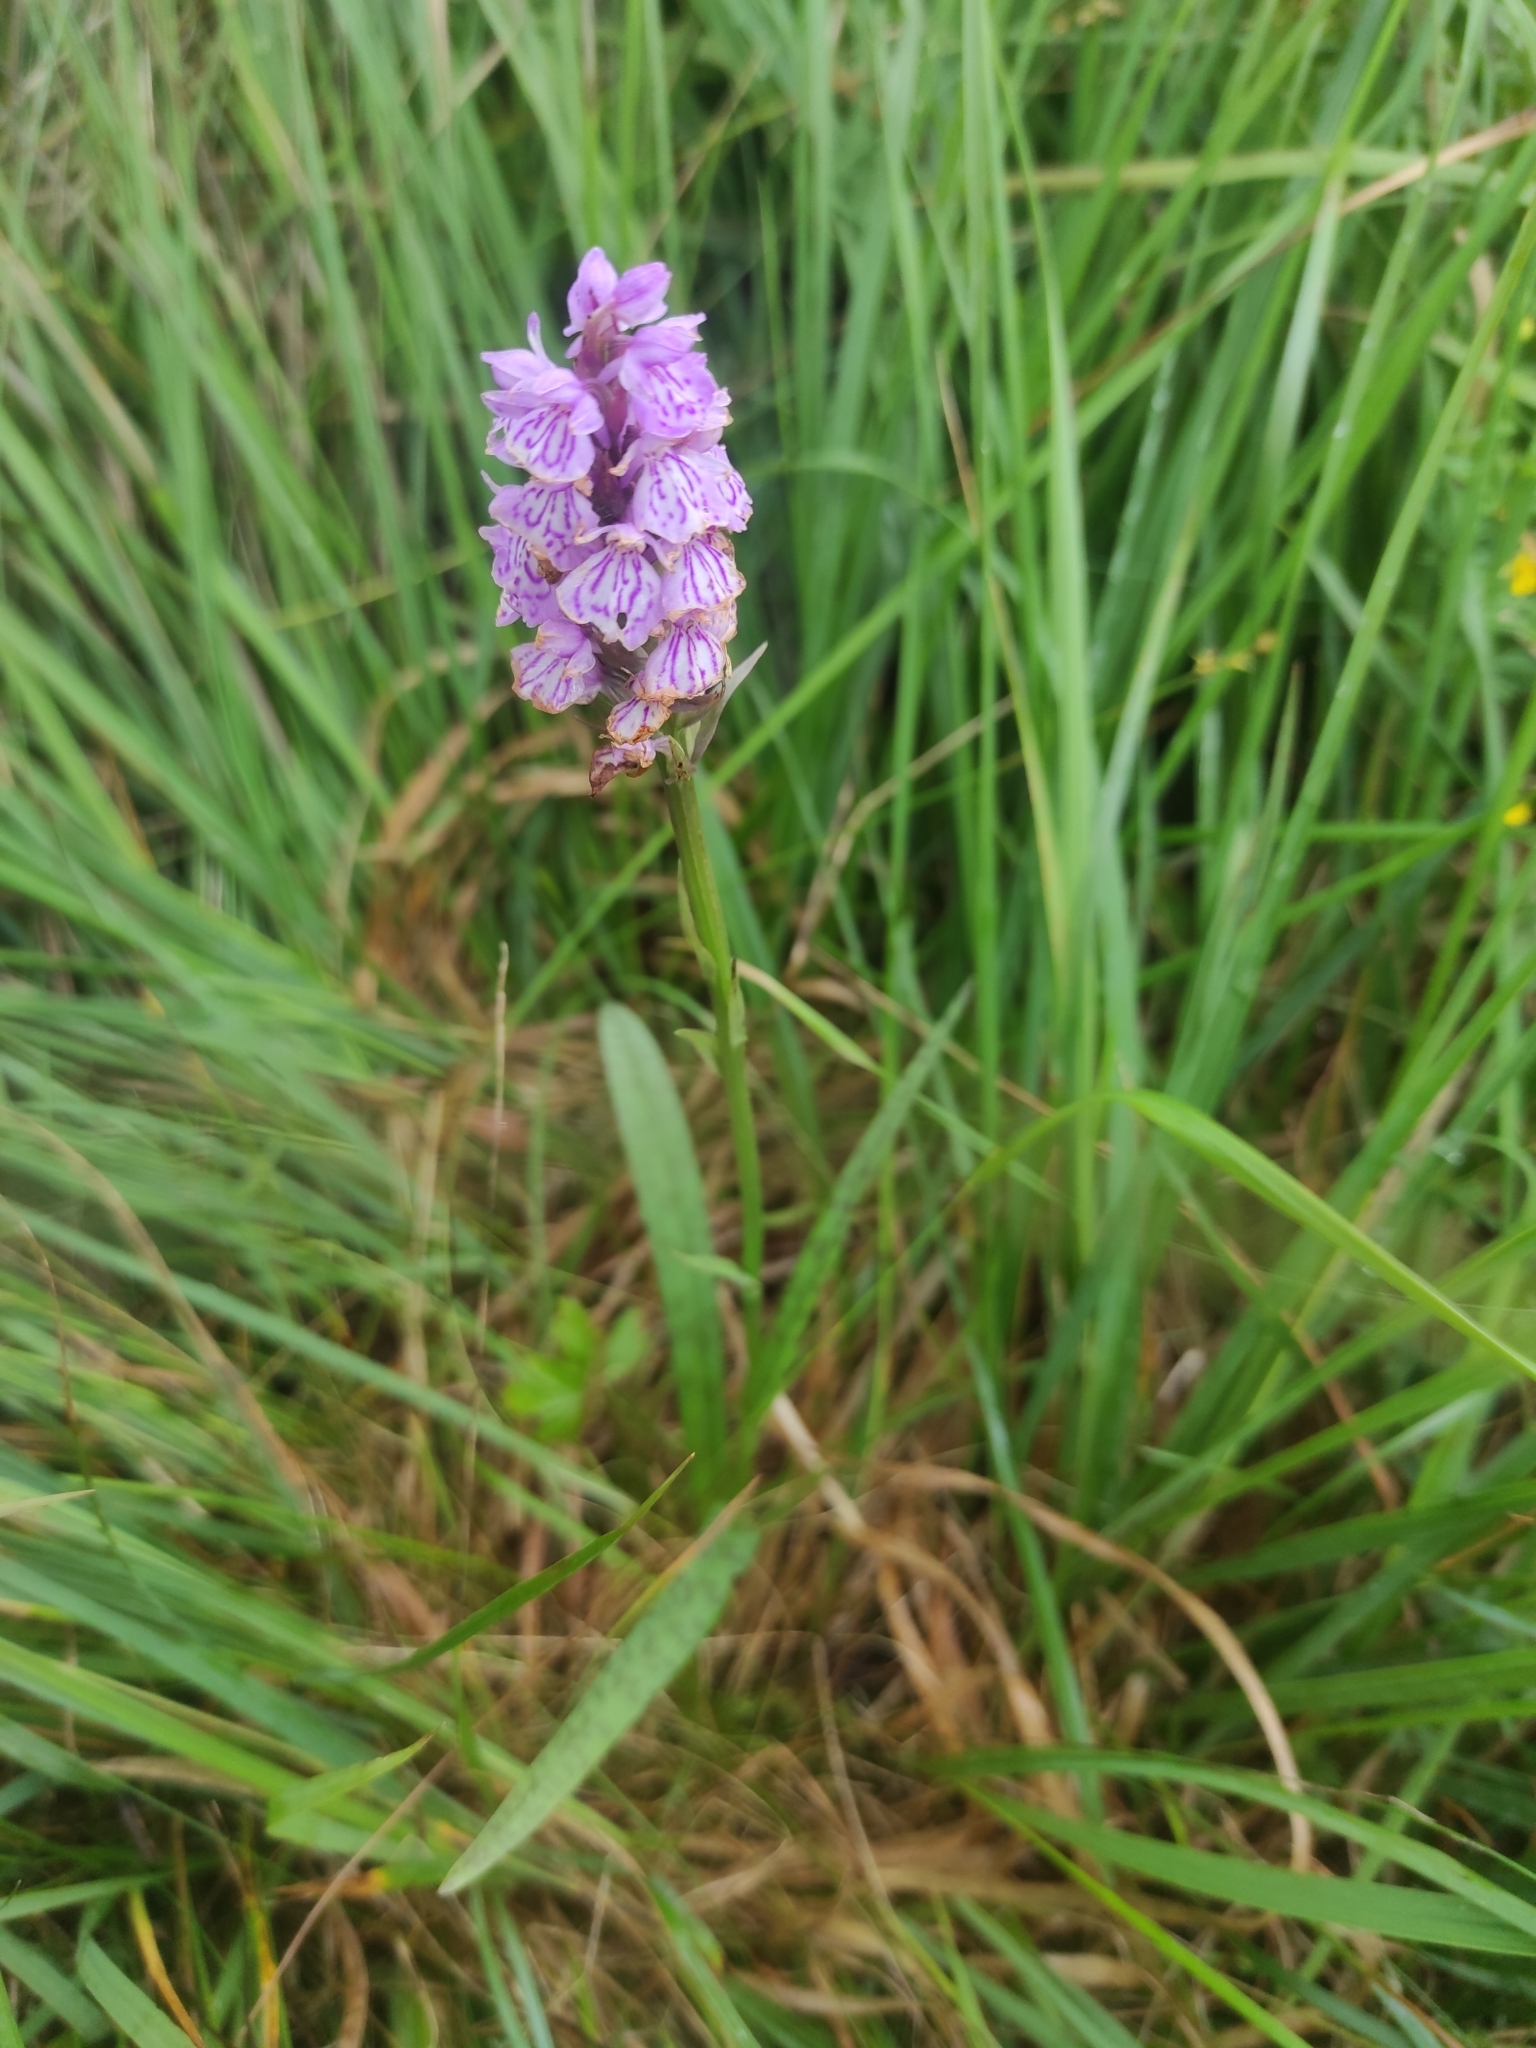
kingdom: Plantae
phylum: Tracheophyta
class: Liliopsida
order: Asparagales
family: Orchidaceae
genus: Dactylorhiza
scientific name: Dactylorhiza maculata
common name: Heath spotted-orchid
